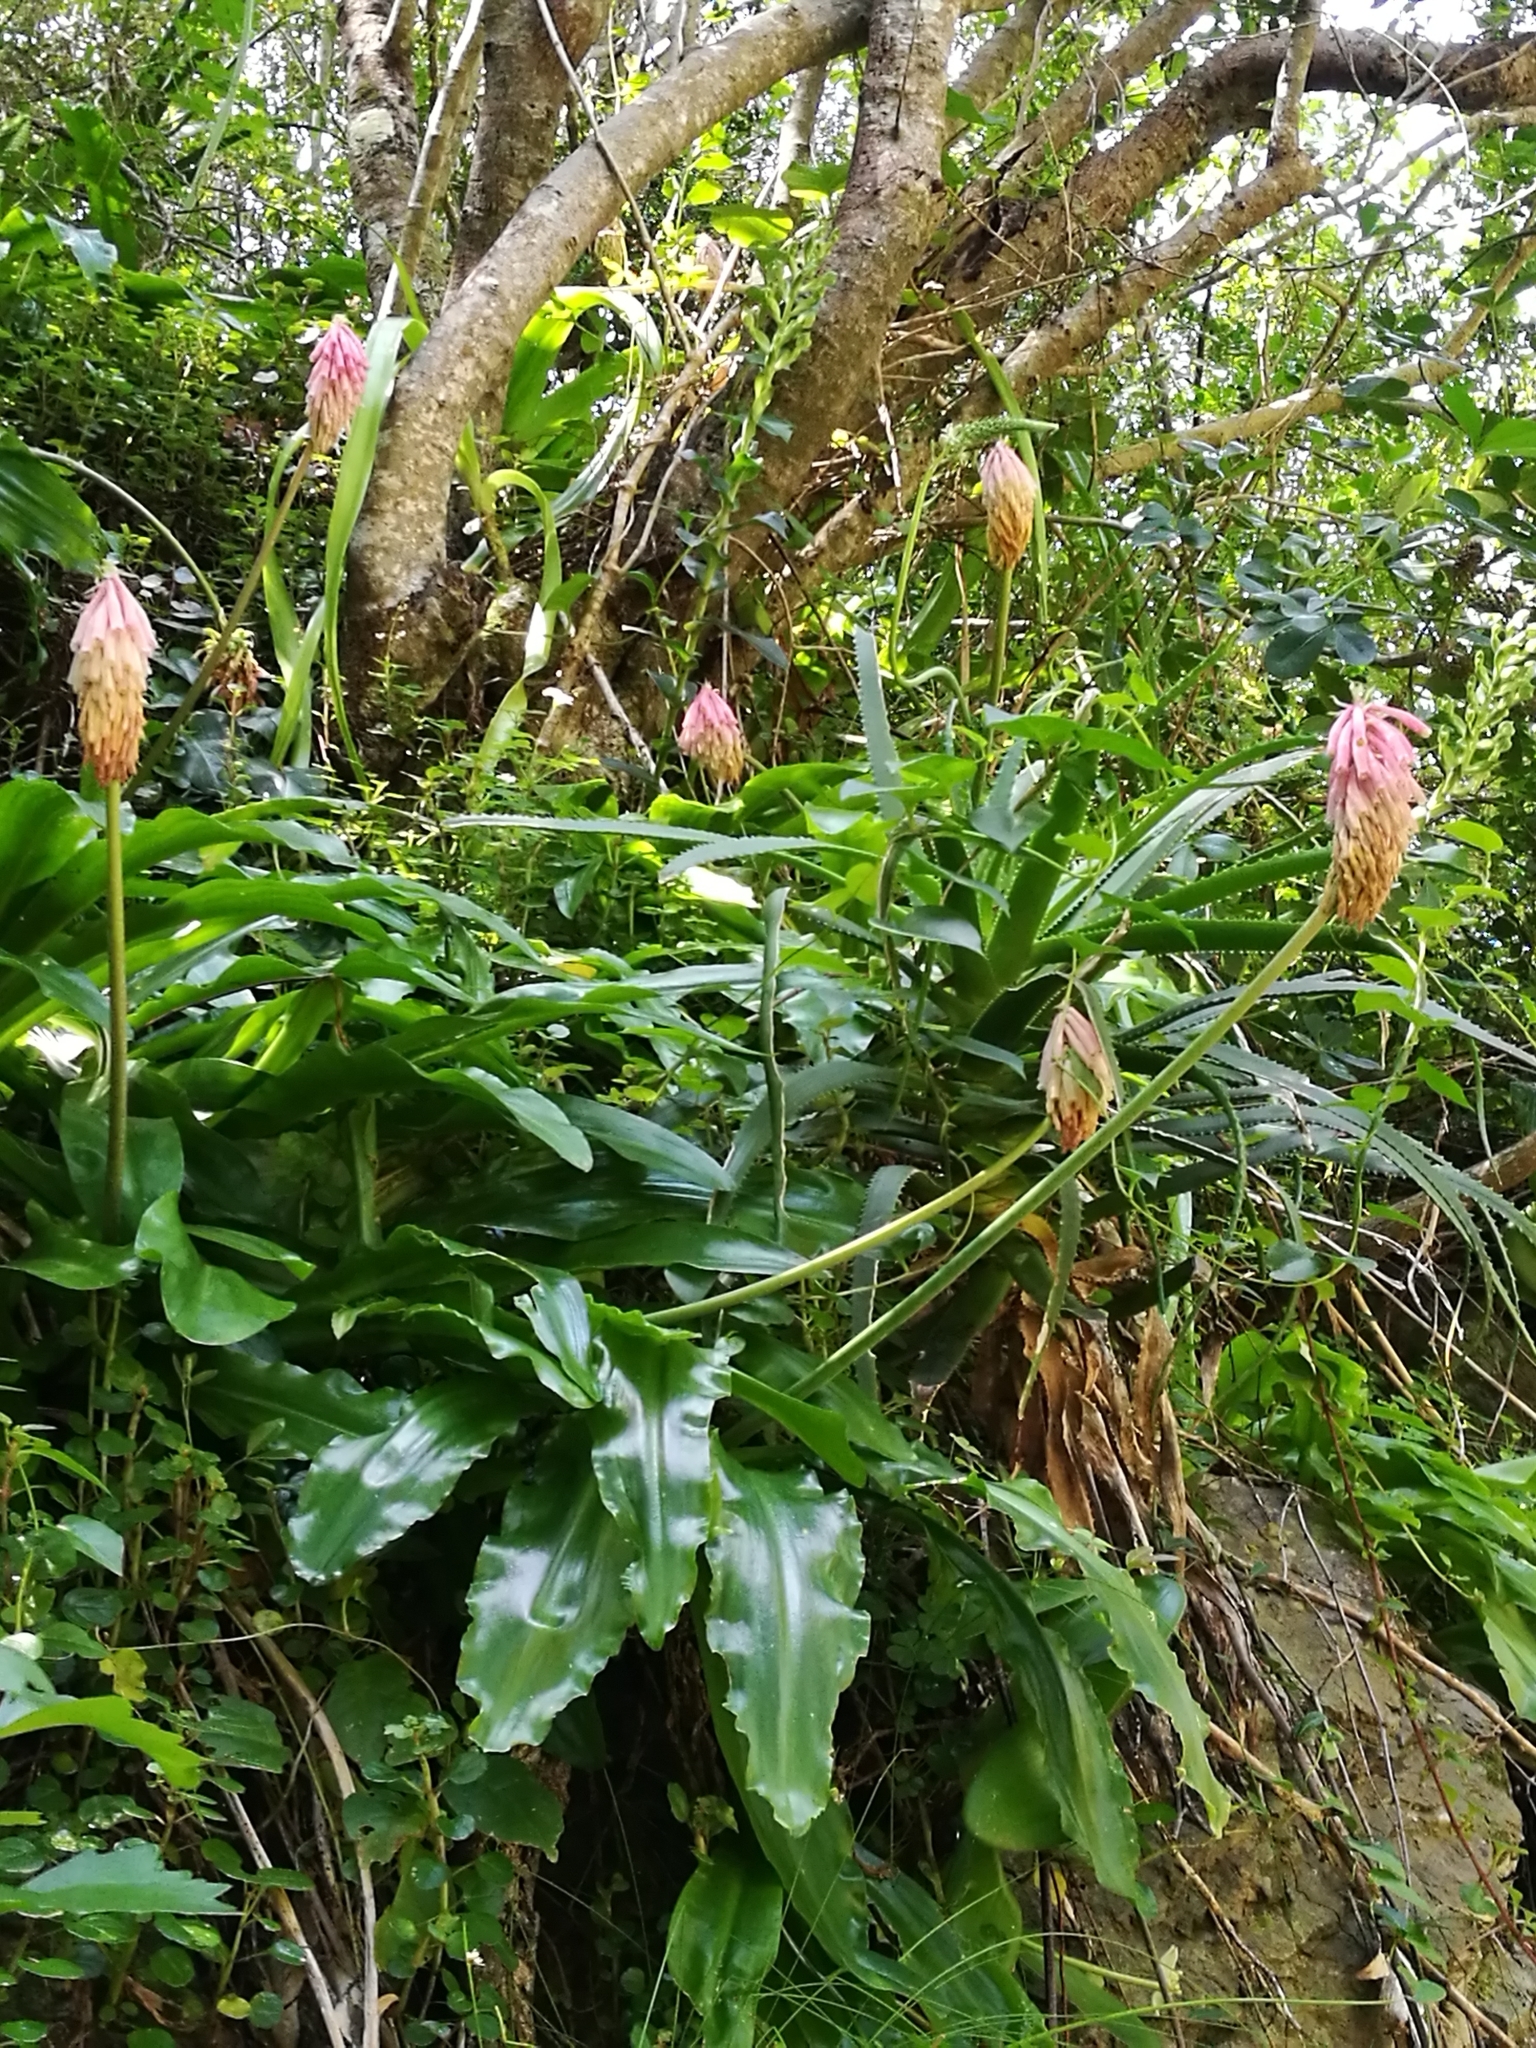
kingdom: Plantae
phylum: Tracheophyta
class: Liliopsida
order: Asparagales
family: Asparagaceae
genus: Veltheimia
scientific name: Veltheimia bracteata
